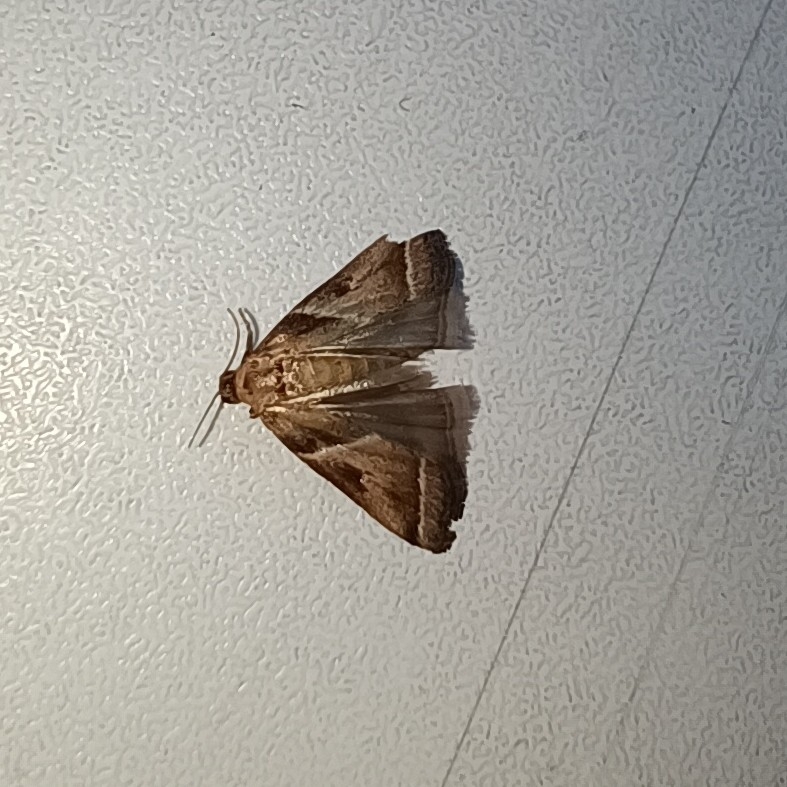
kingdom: Animalia
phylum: Arthropoda
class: Insecta
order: Lepidoptera
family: Pyralidae
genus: Nyctegretis
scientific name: Nyctegretis lineana
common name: Agate knot-horn
